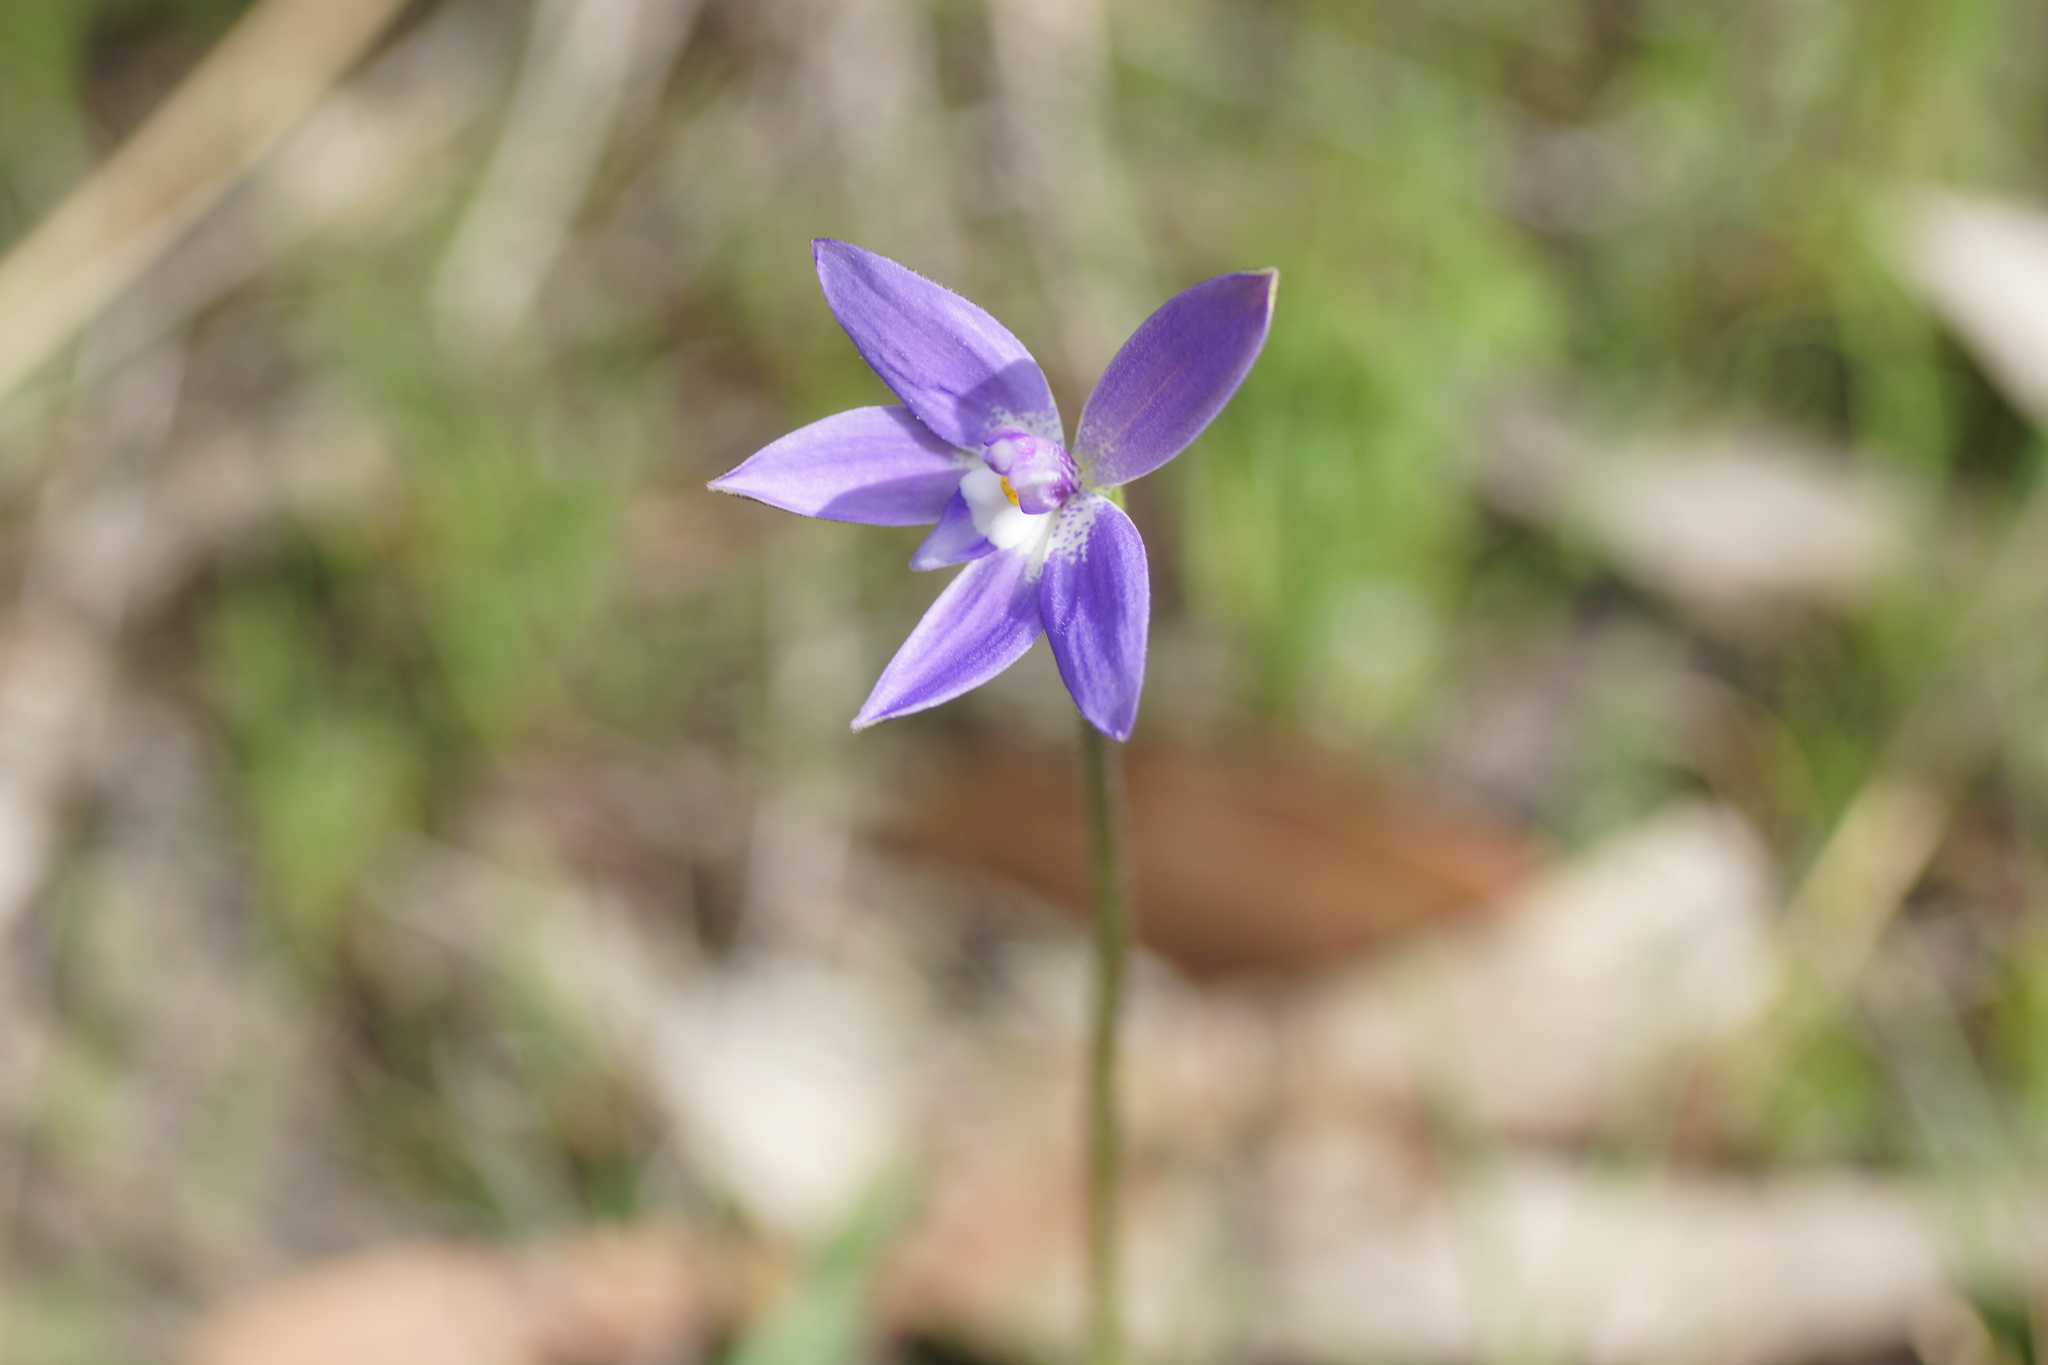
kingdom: Plantae
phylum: Tracheophyta
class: Liliopsida
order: Asparagales
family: Orchidaceae
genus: Caladenia
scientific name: Caladenia major
